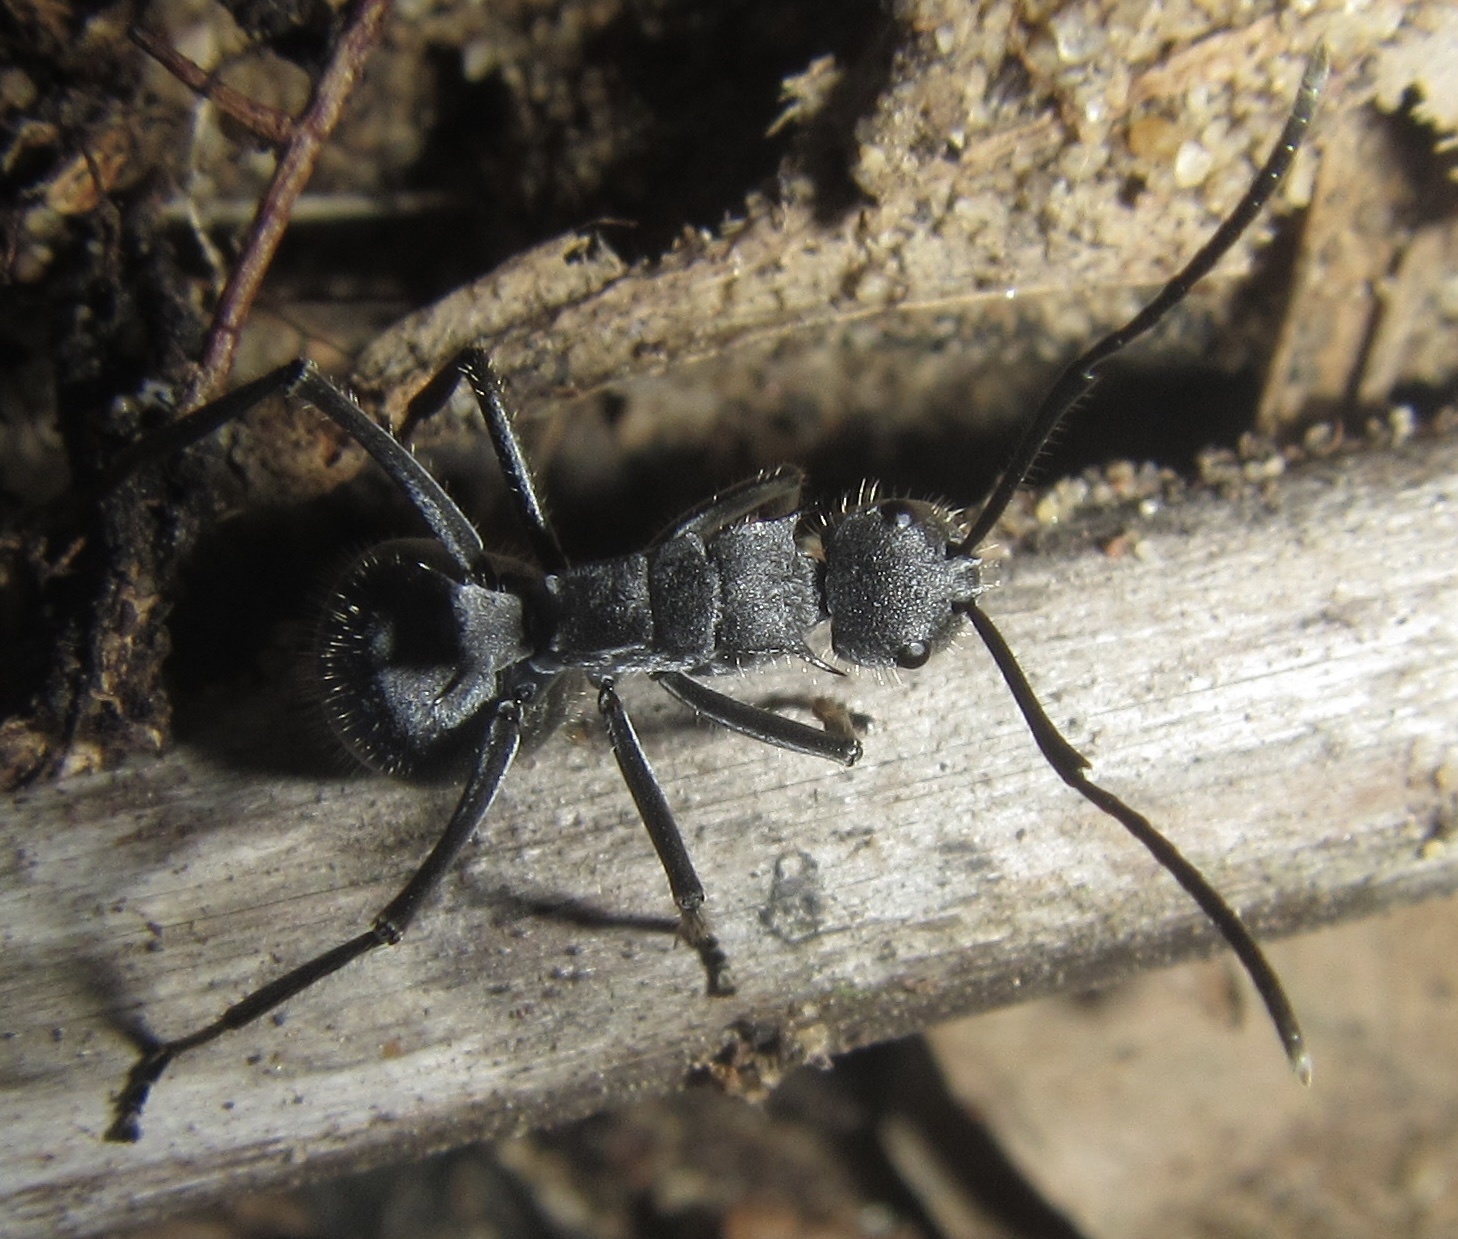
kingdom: Animalia
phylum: Arthropoda
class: Insecta
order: Hymenoptera
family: Formicidae
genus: Polyrhachis
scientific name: Polyrhachis schistacea
